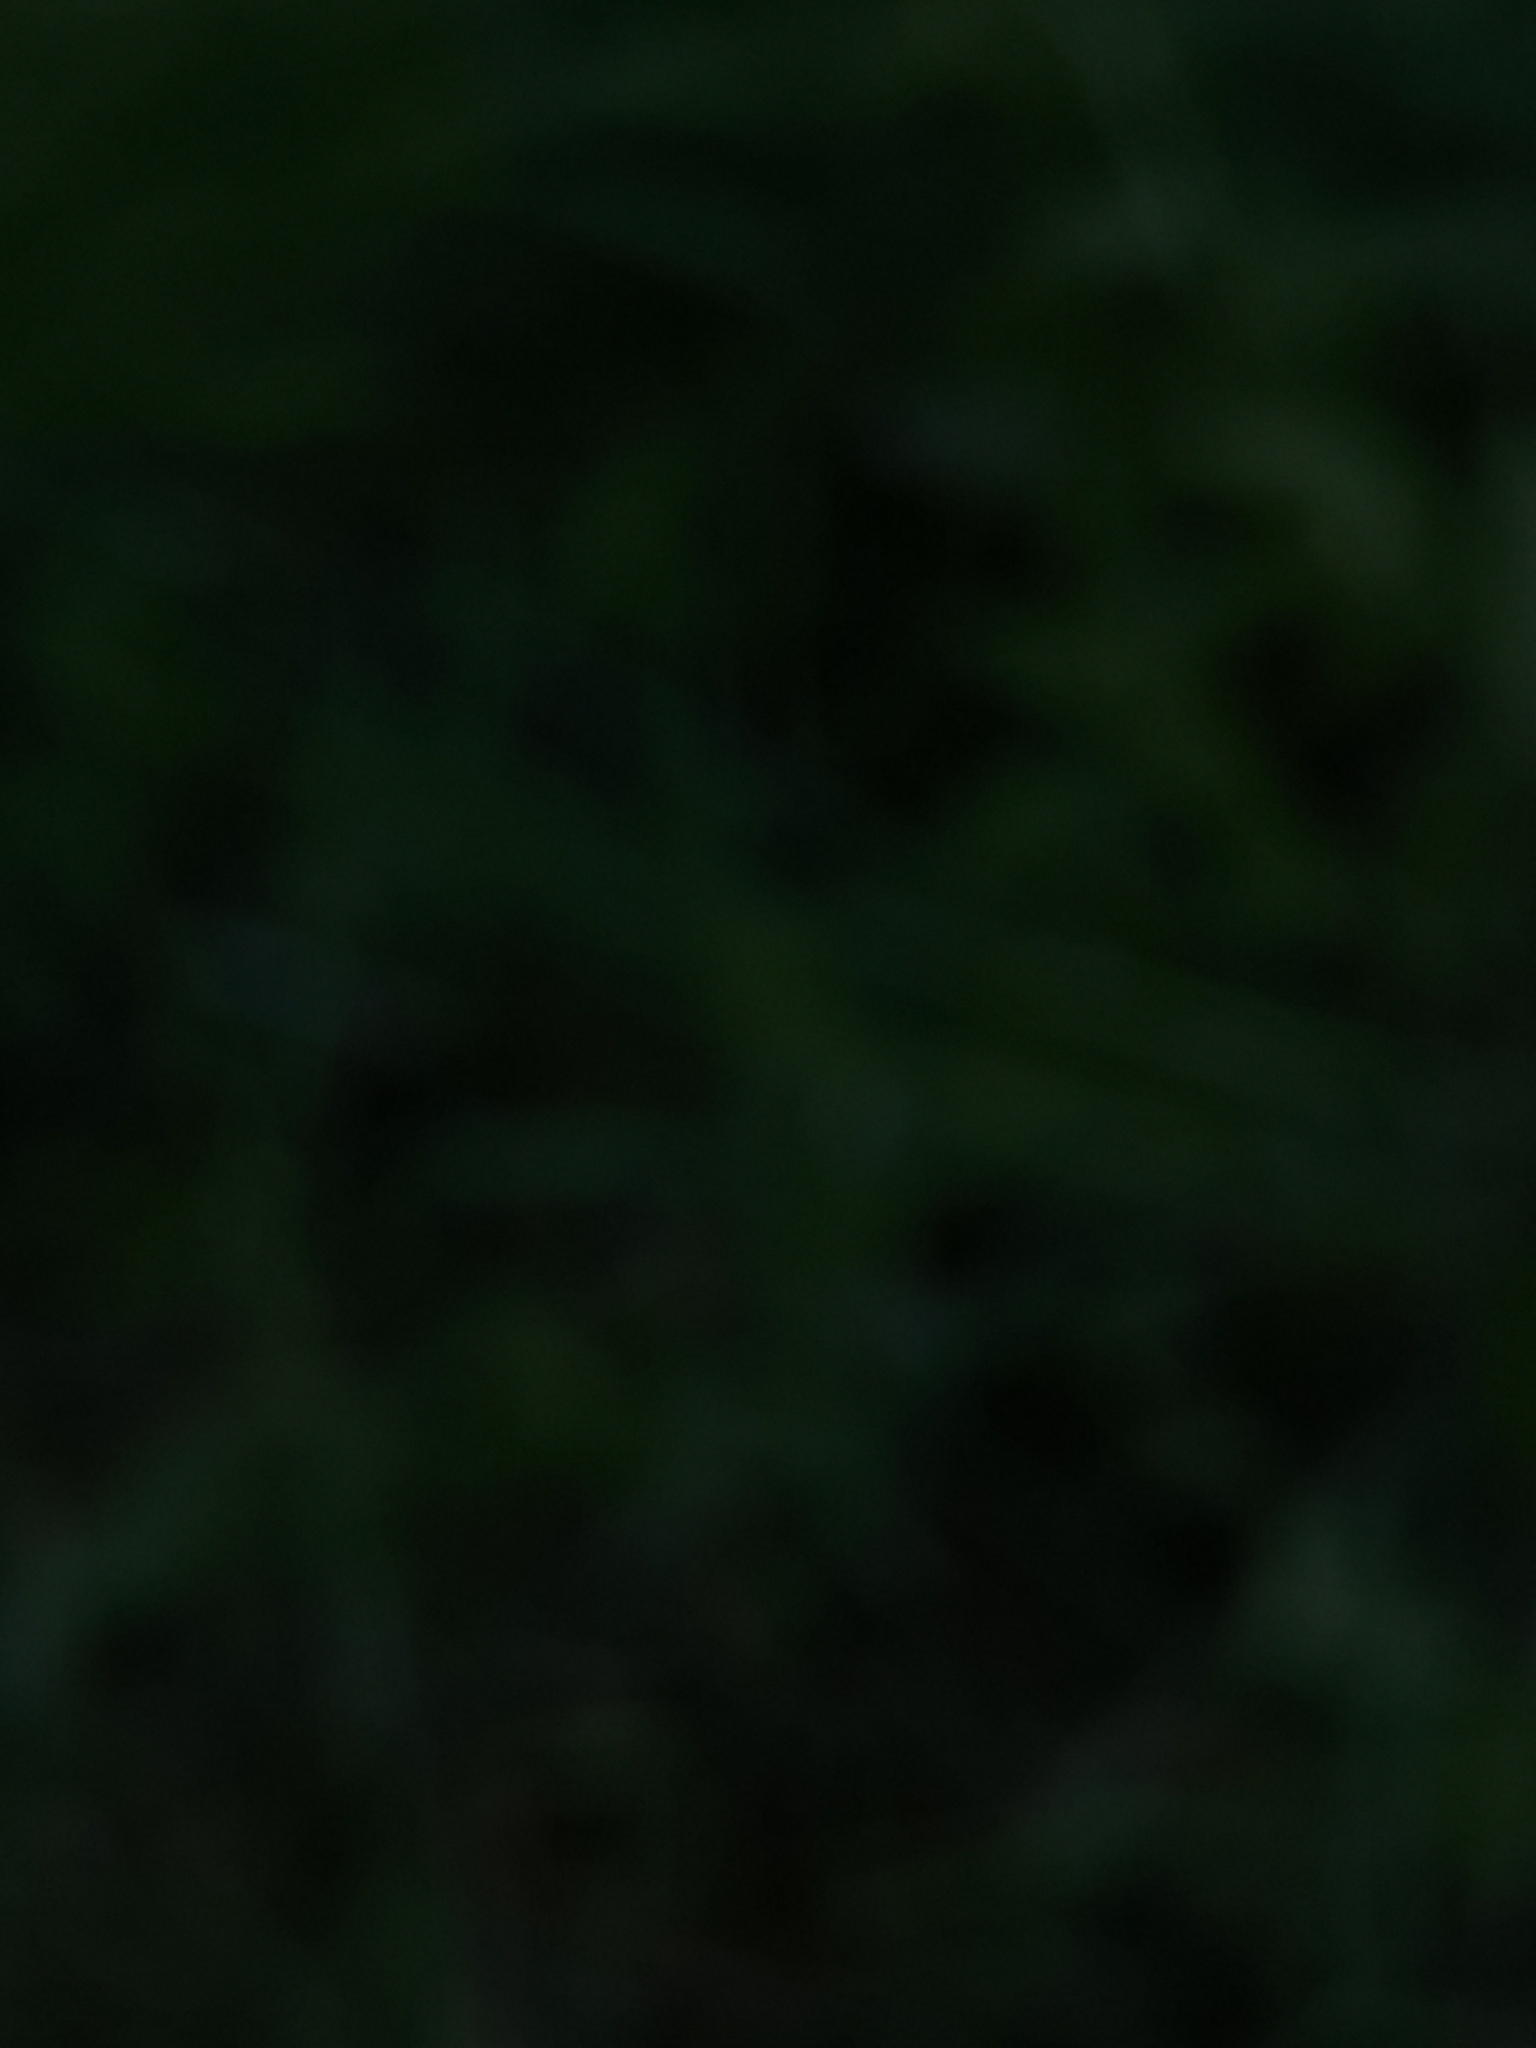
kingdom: Plantae
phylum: Tracheophyta
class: Magnoliopsida
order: Lamiales
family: Lamiaceae
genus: Scutellaria
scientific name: Scutellaria galericulata
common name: Skullcap
